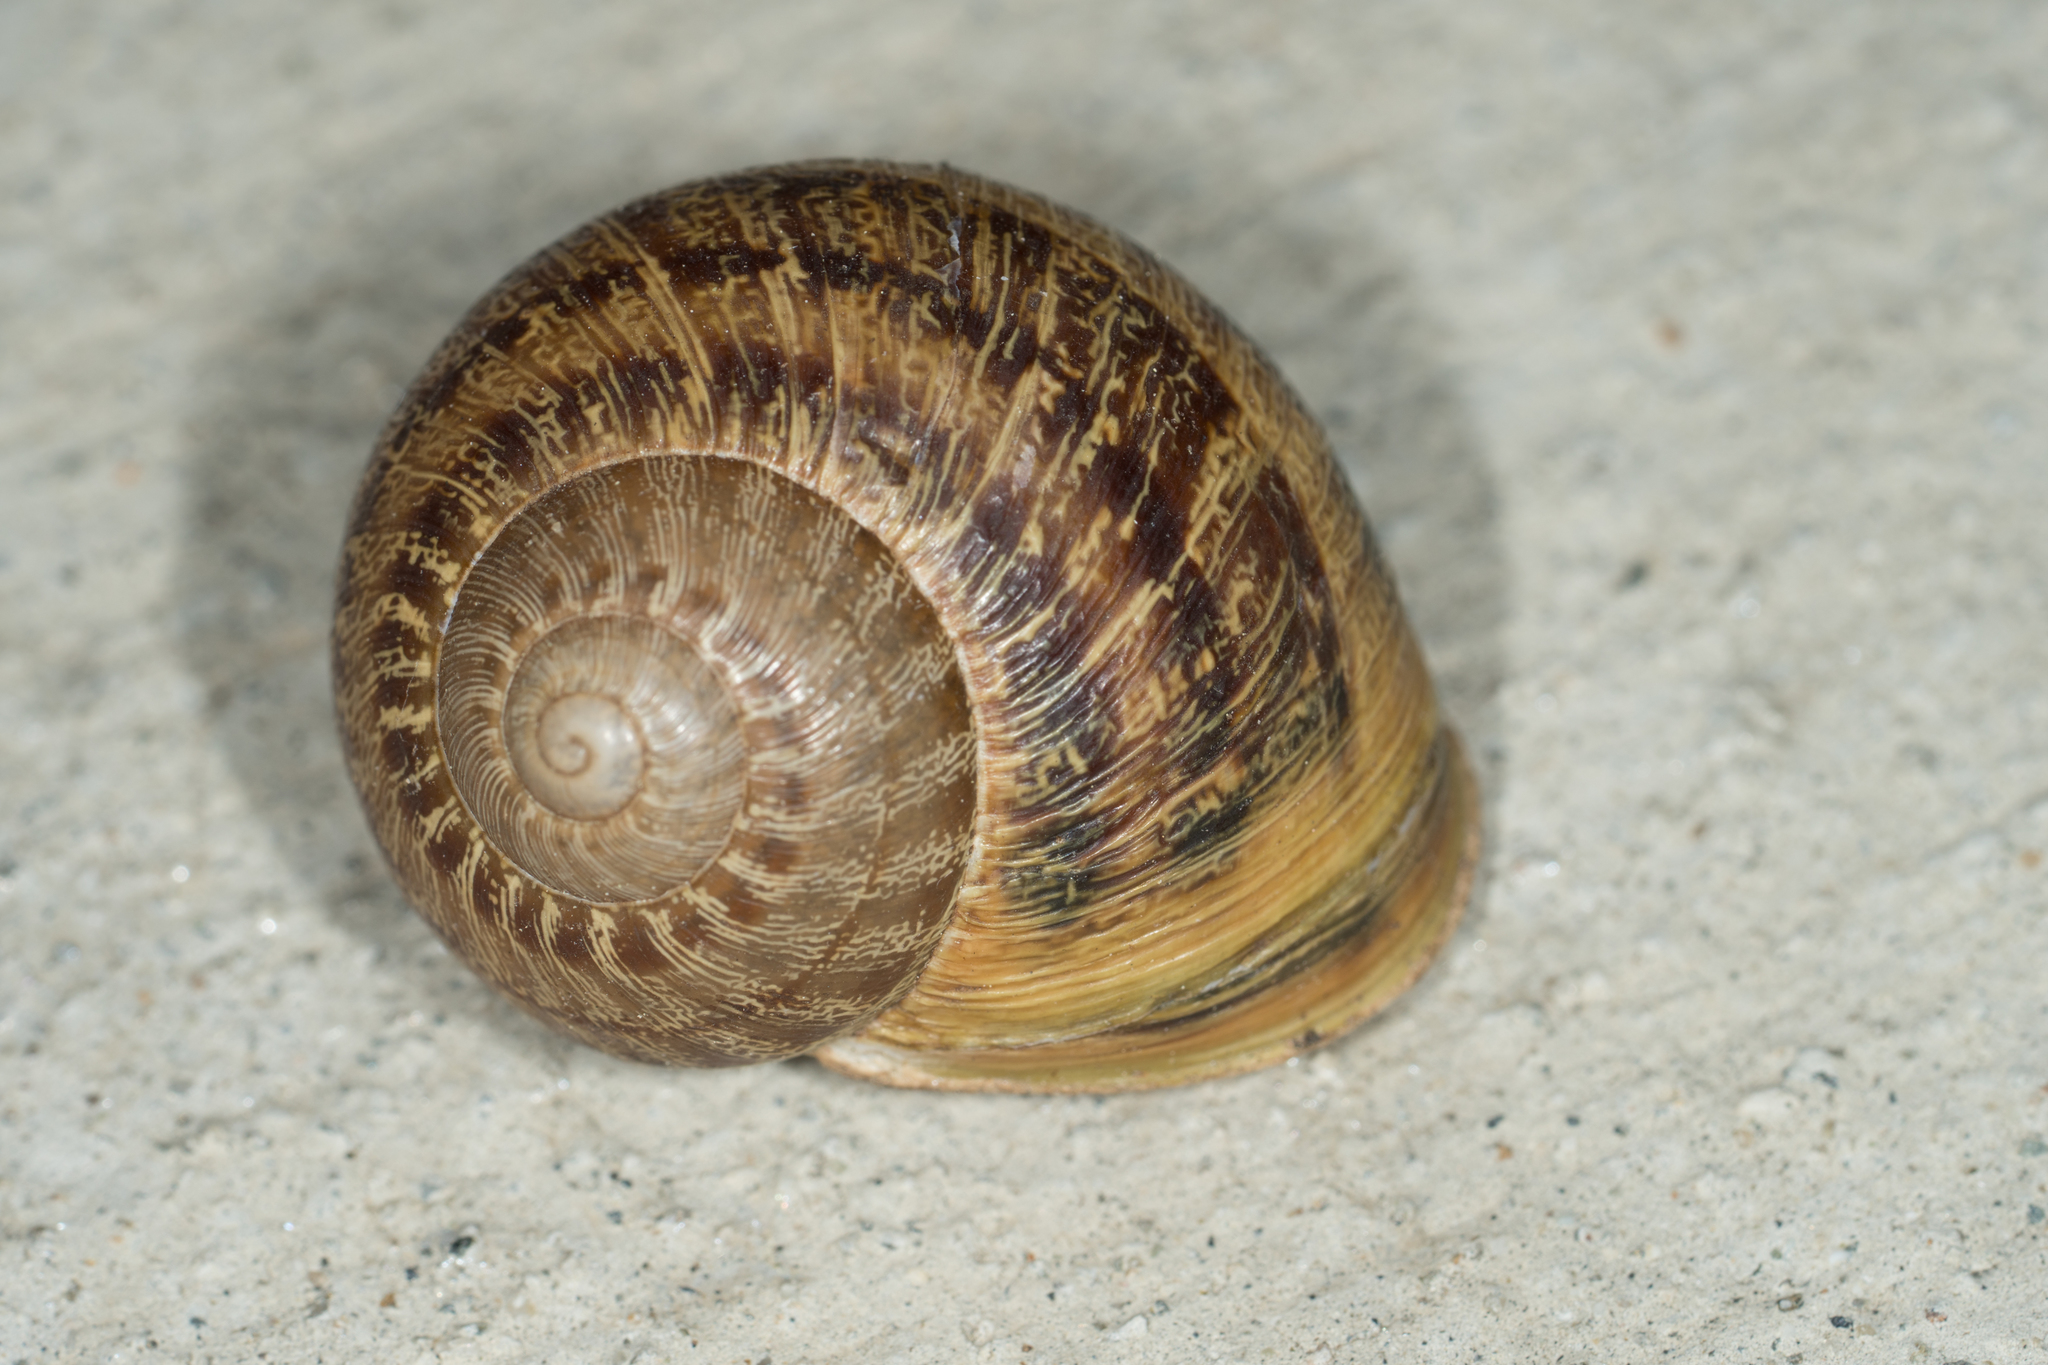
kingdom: Animalia
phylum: Mollusca
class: Gastropoda
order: Stylommatophora
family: Helicidae
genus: Cornu
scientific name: Cornu aspersum
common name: Brown garden snail
